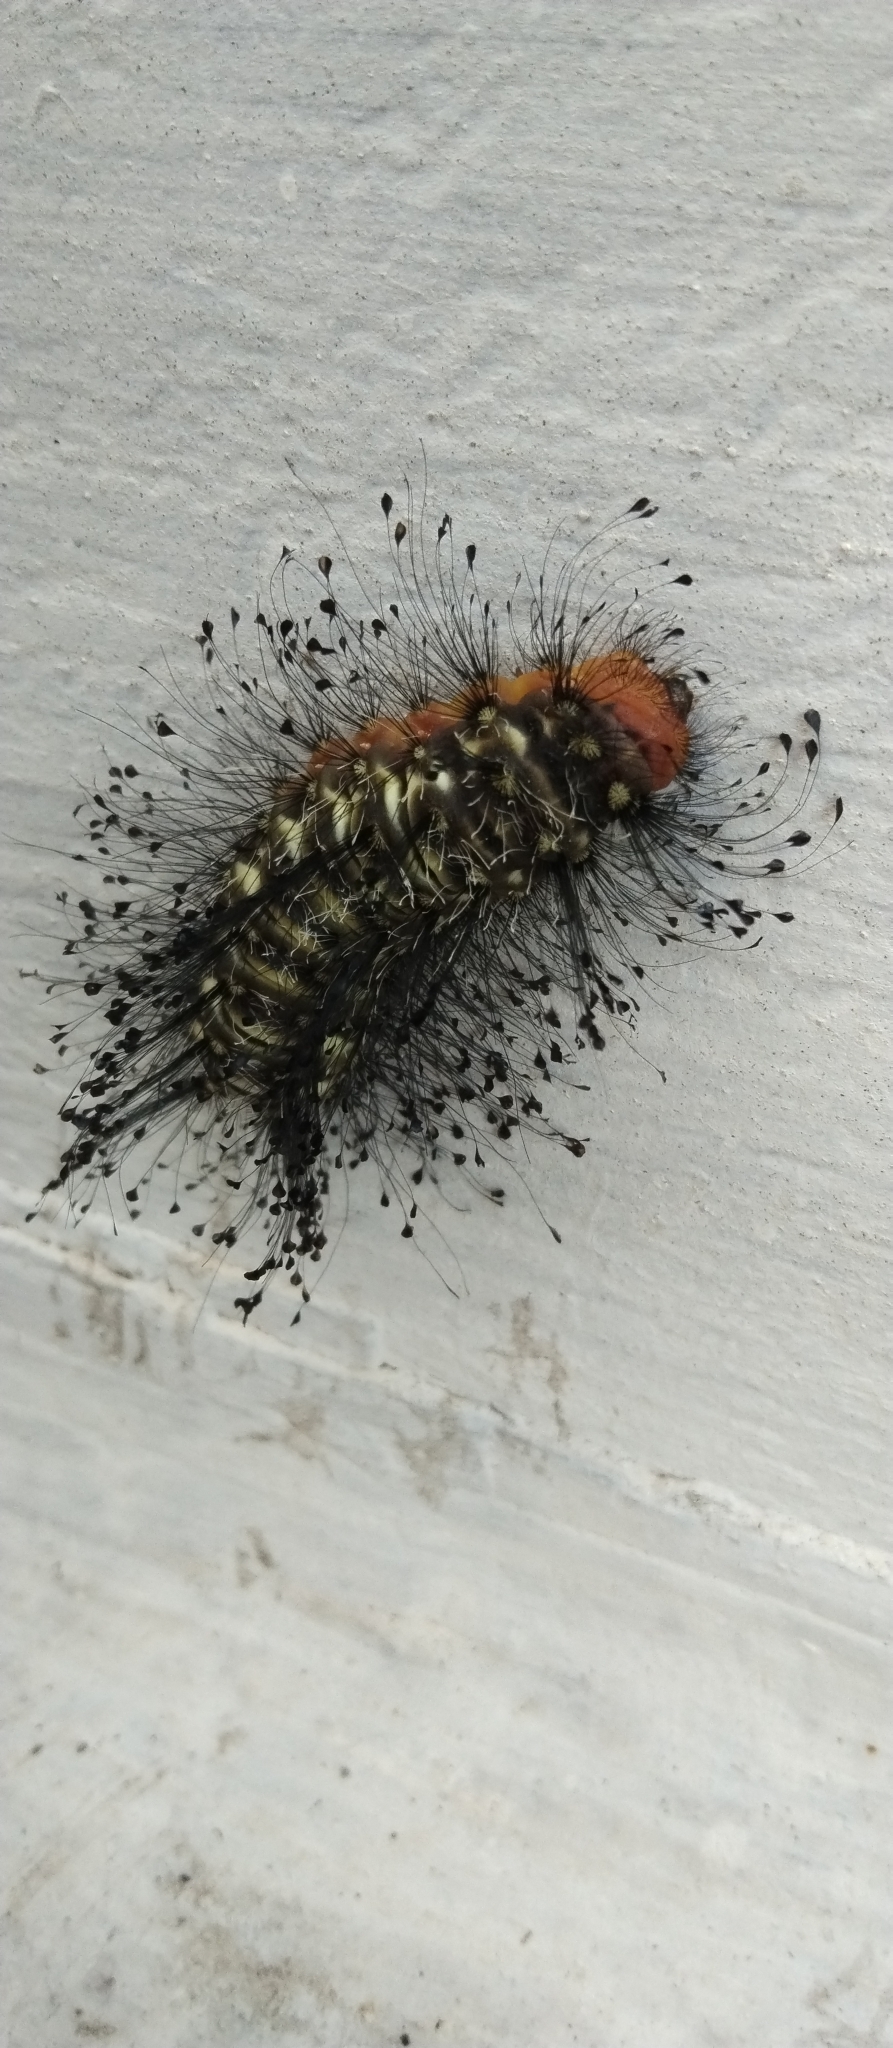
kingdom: Animalia
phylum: Arthropoda
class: Insecta
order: Lepidoptera
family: Megalopygidae
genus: Megalopyge
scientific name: Megalopyge urens
